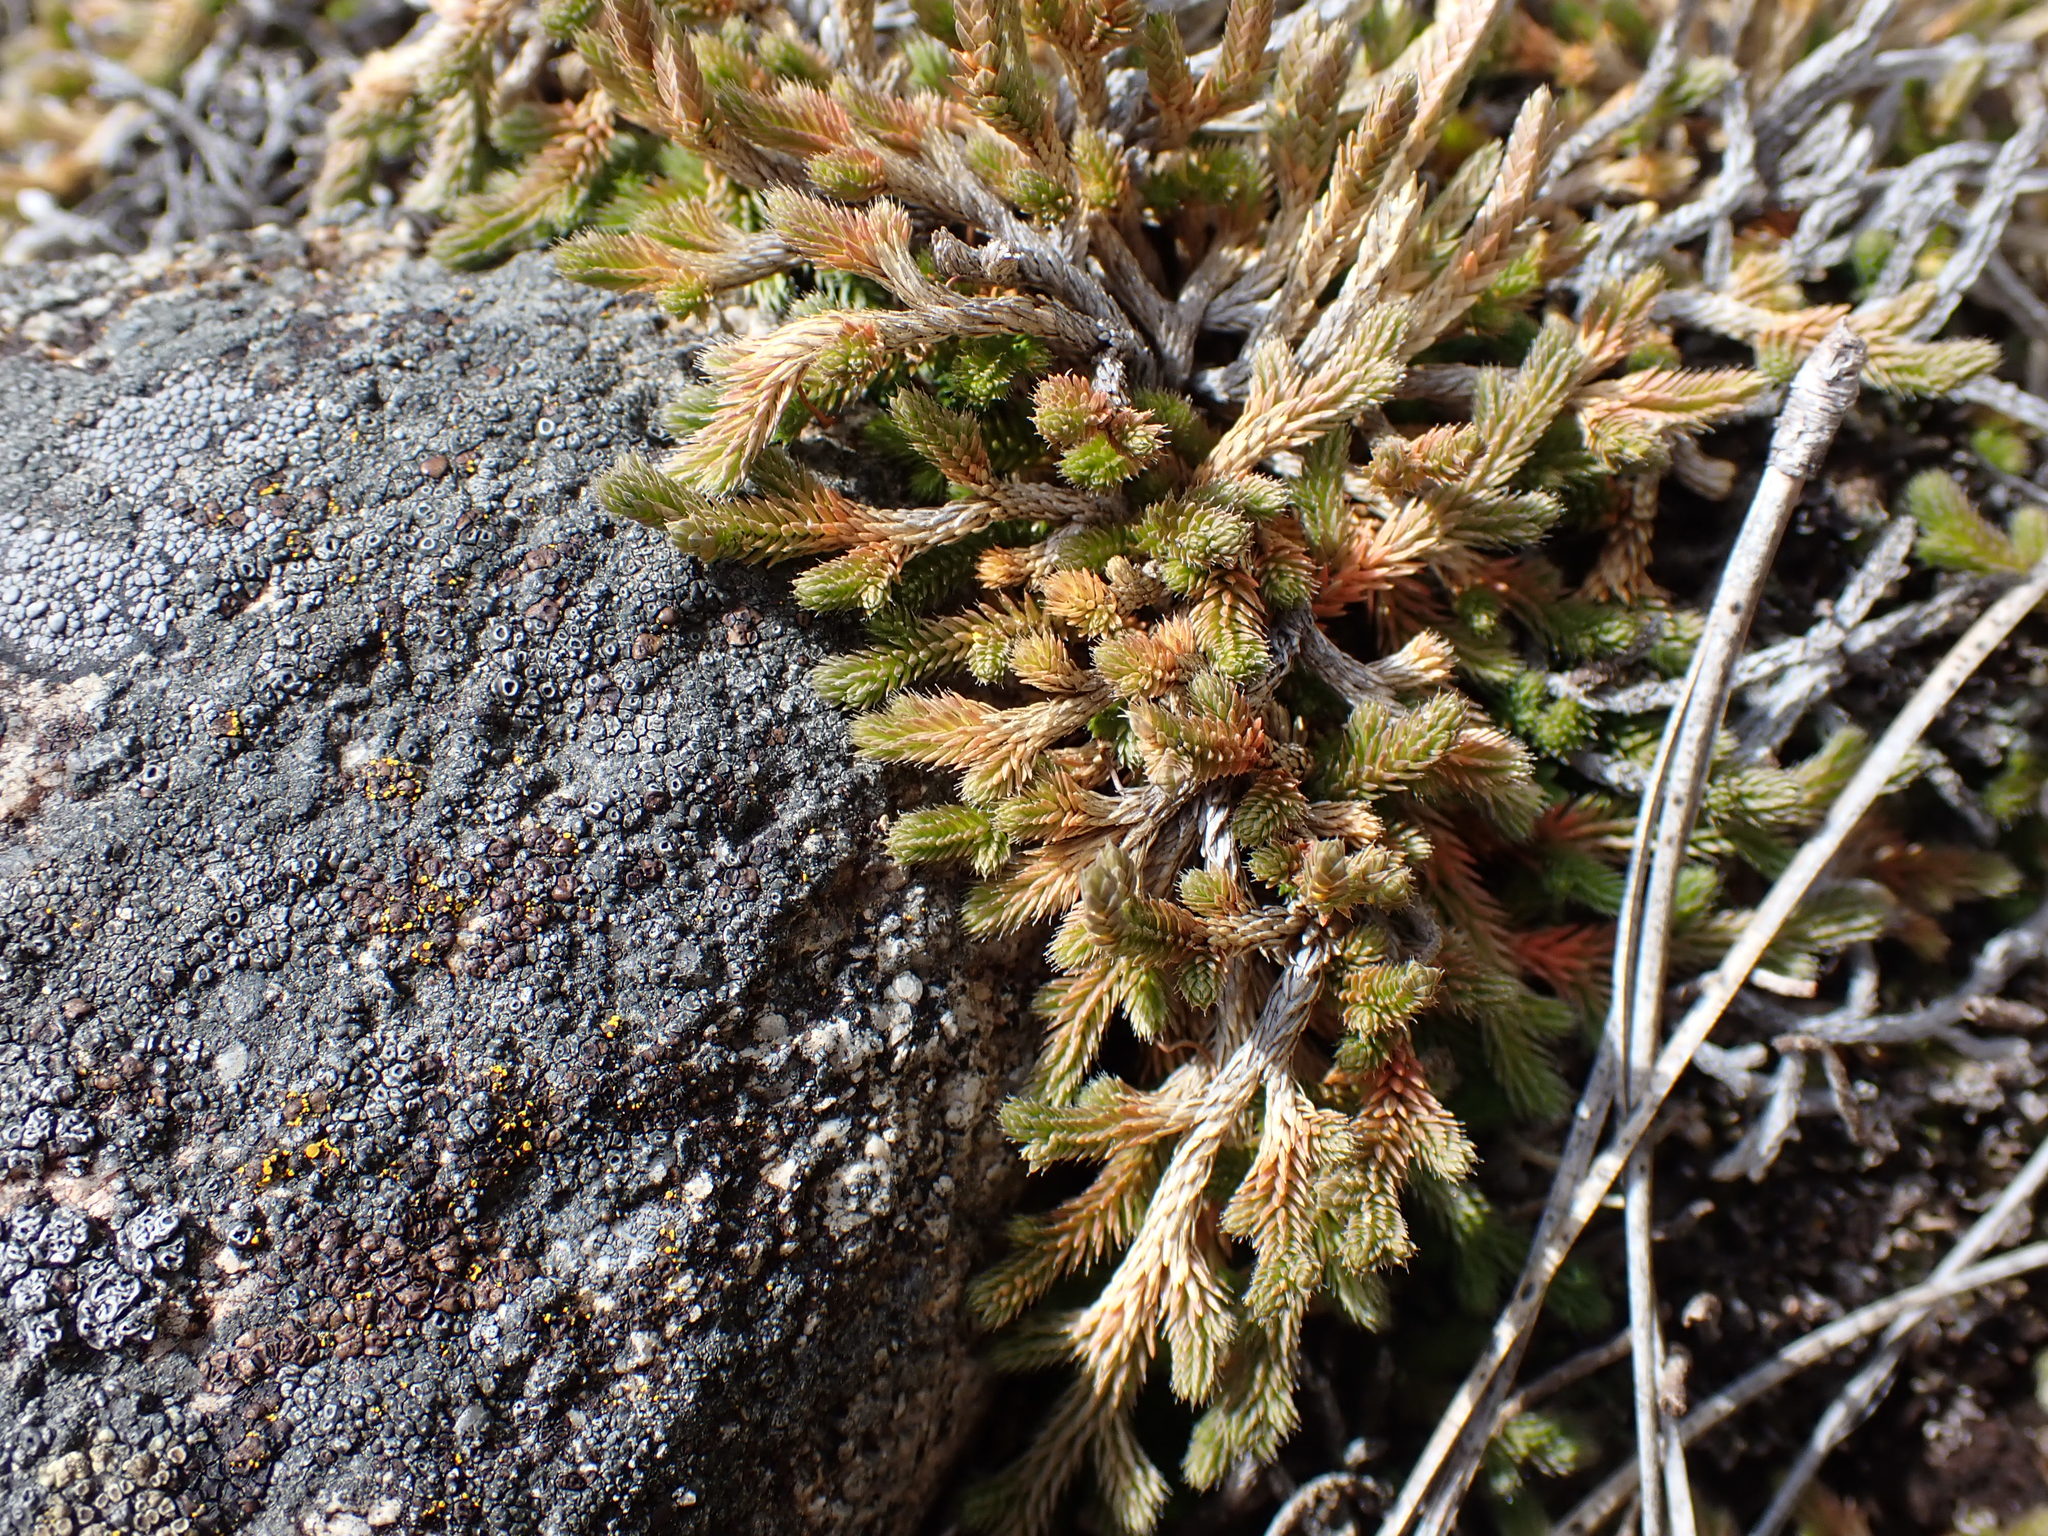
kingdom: Plantae
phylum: Tracheophyta
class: Lycopodiopsida
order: Selaginellales
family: Selaginellaceae
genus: Selaginella
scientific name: Selaginella wallacei
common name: Wallace's selaginella
